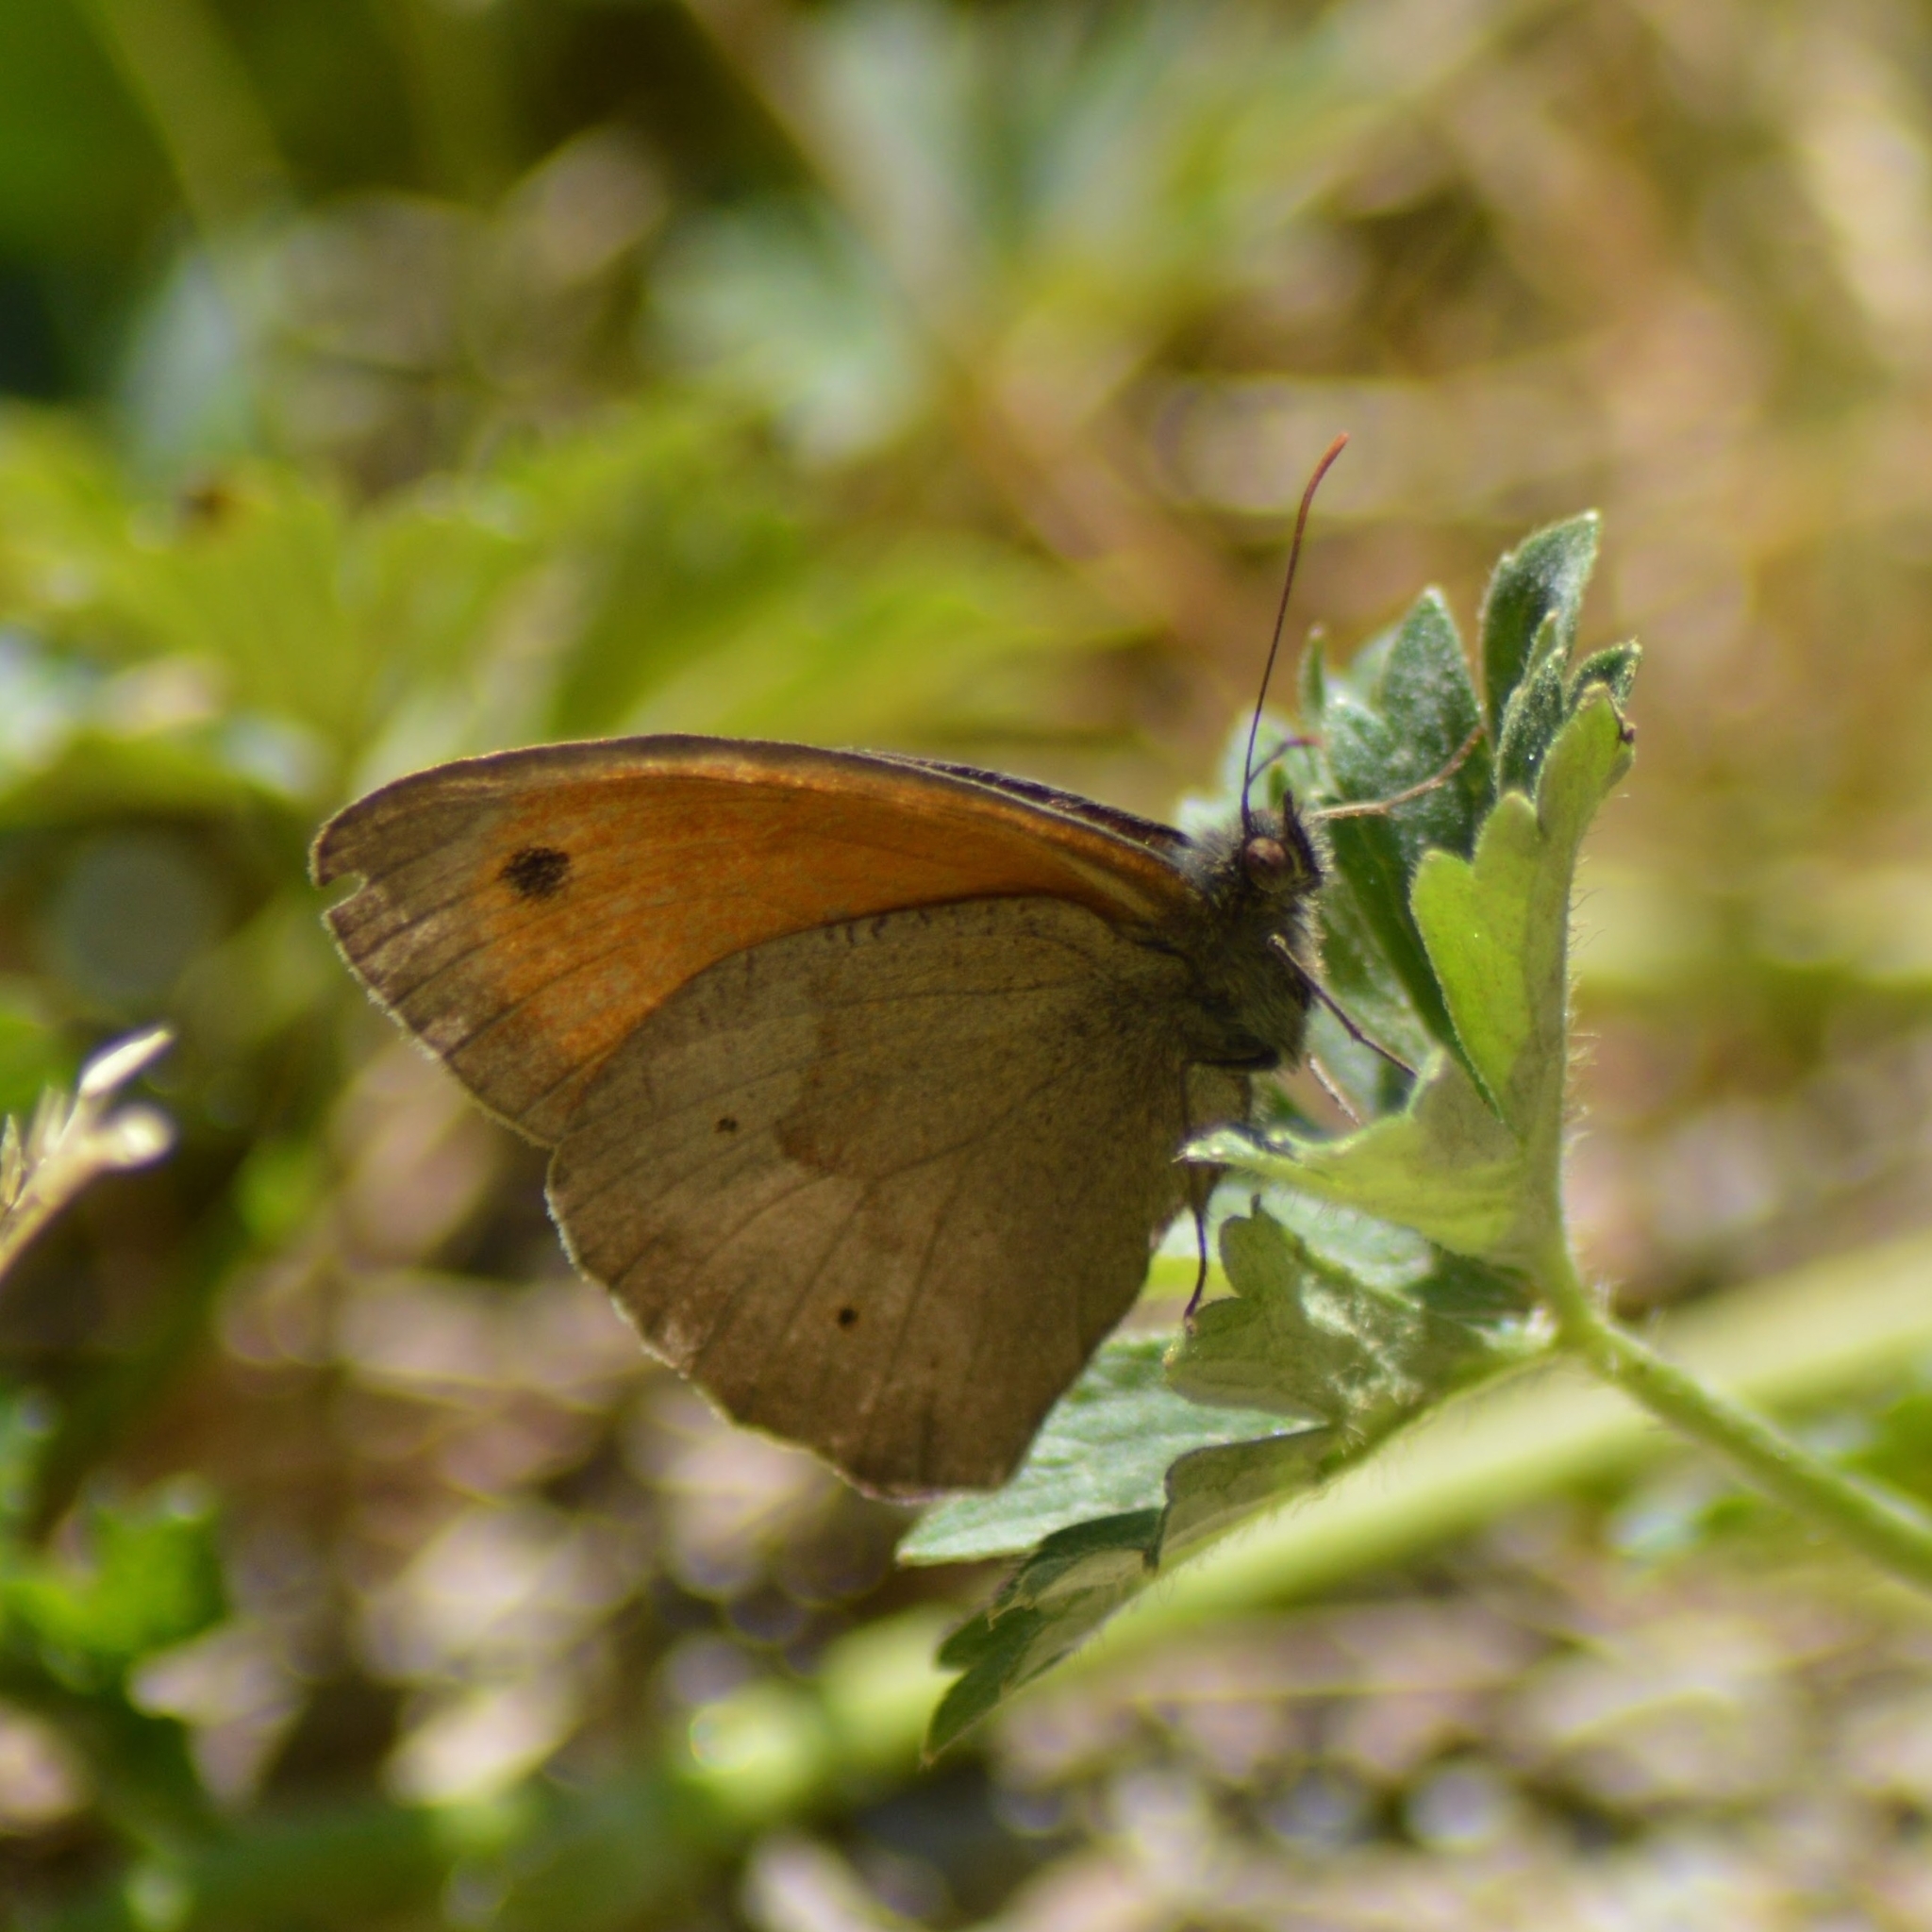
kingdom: Animalia
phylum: Arthropoda
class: Insecta
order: Lepidoptera
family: Nymphalidae
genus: Maniola
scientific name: Maniola jurtina
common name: Meadow brown
